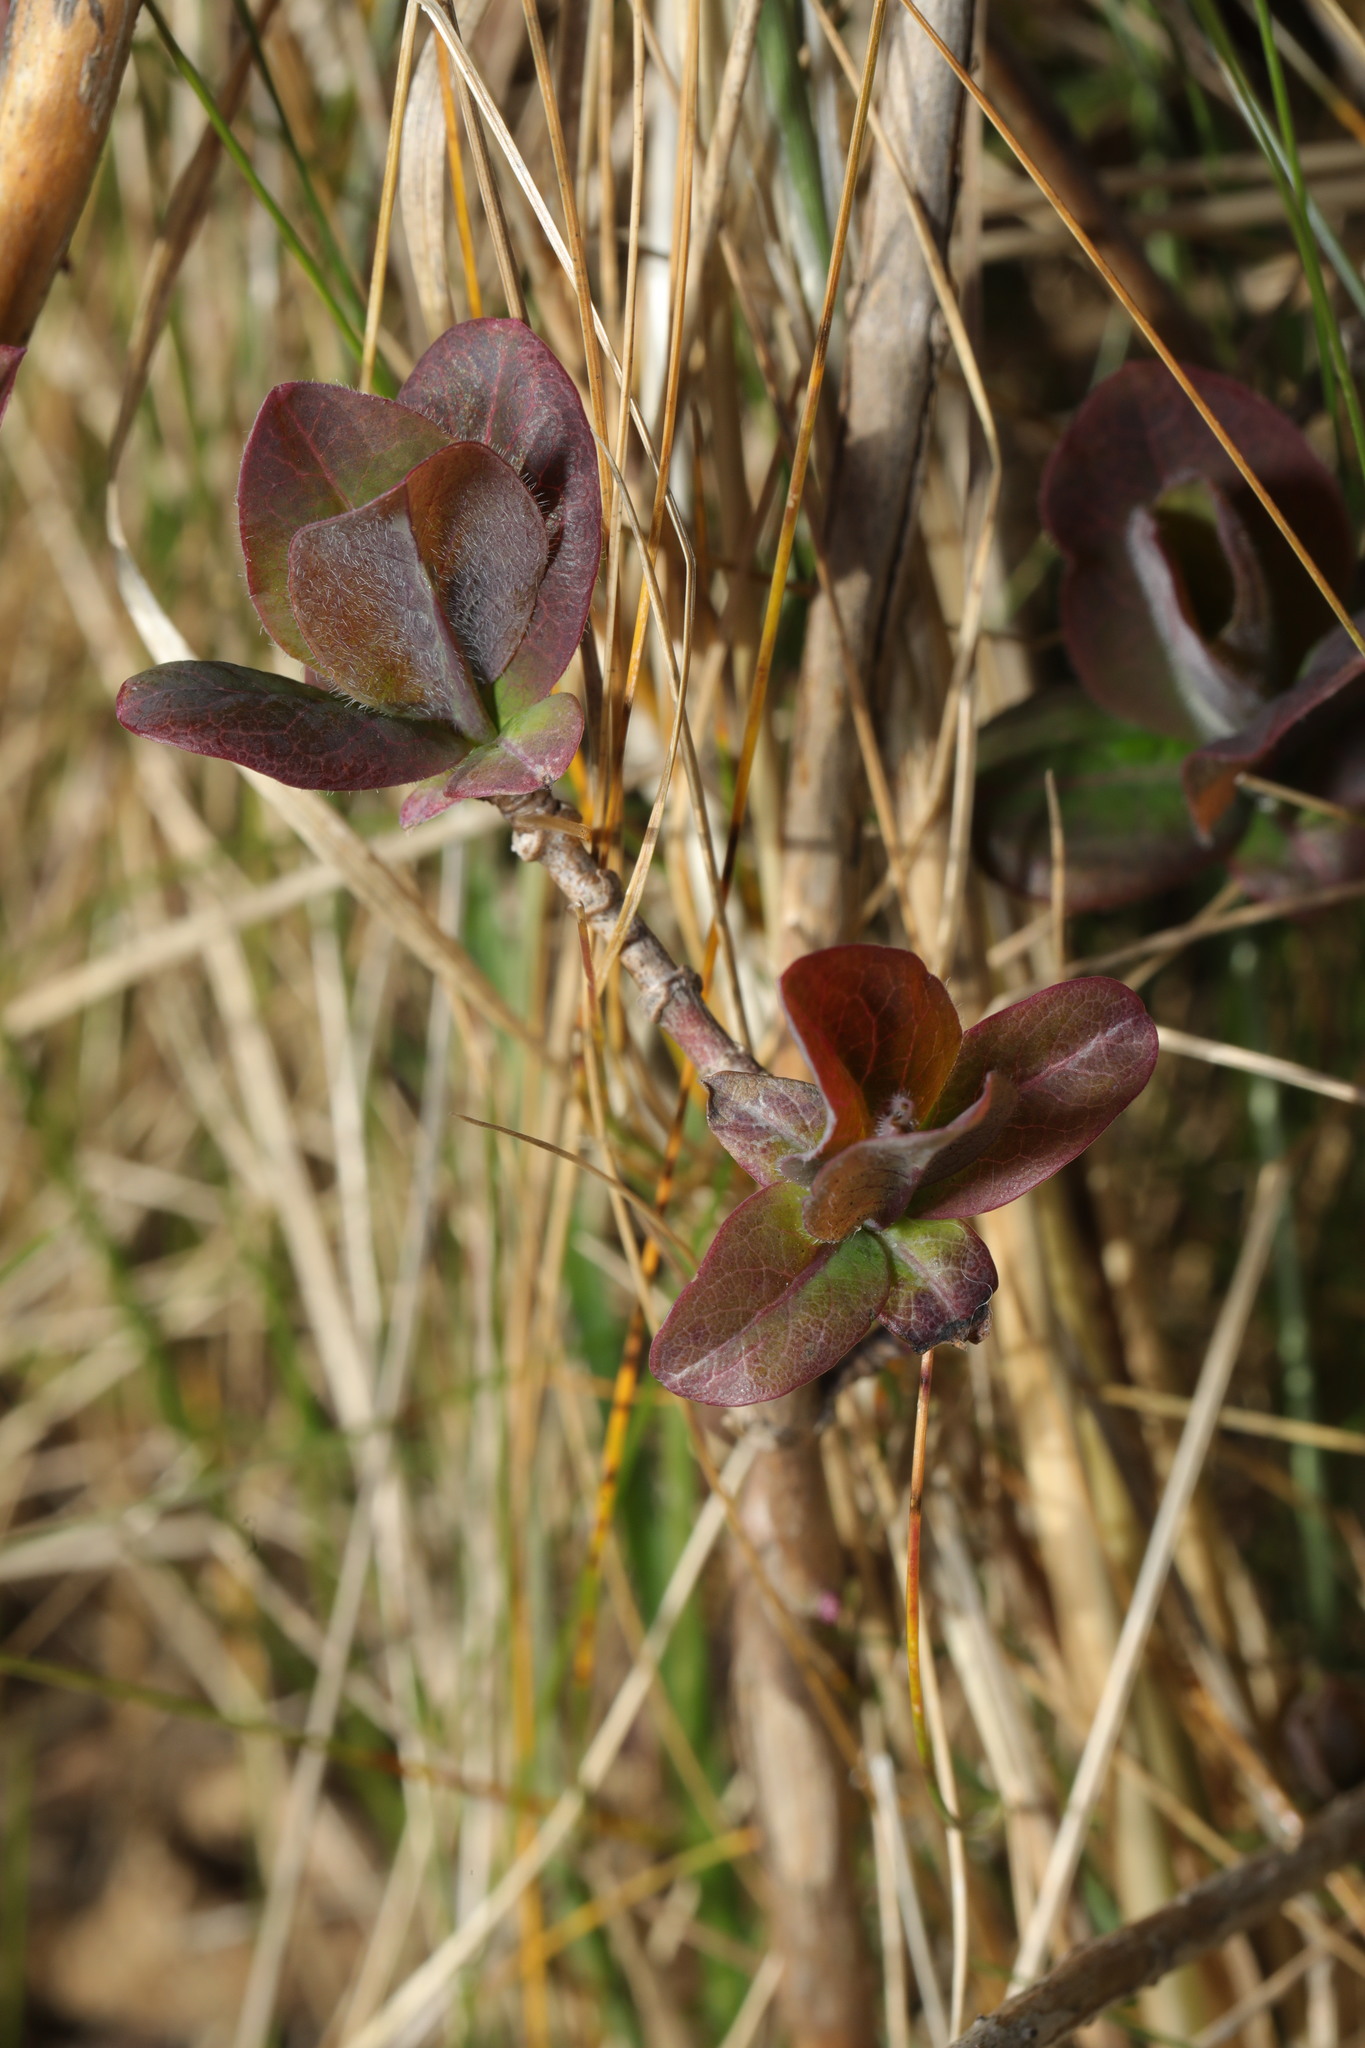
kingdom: Plantae
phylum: Tracheophyta
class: Magnoliopsida
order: Dipsacales
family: Caprifoliaceae
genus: Lonicera
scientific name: Lonicera periclymenum
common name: European honeysuckle
